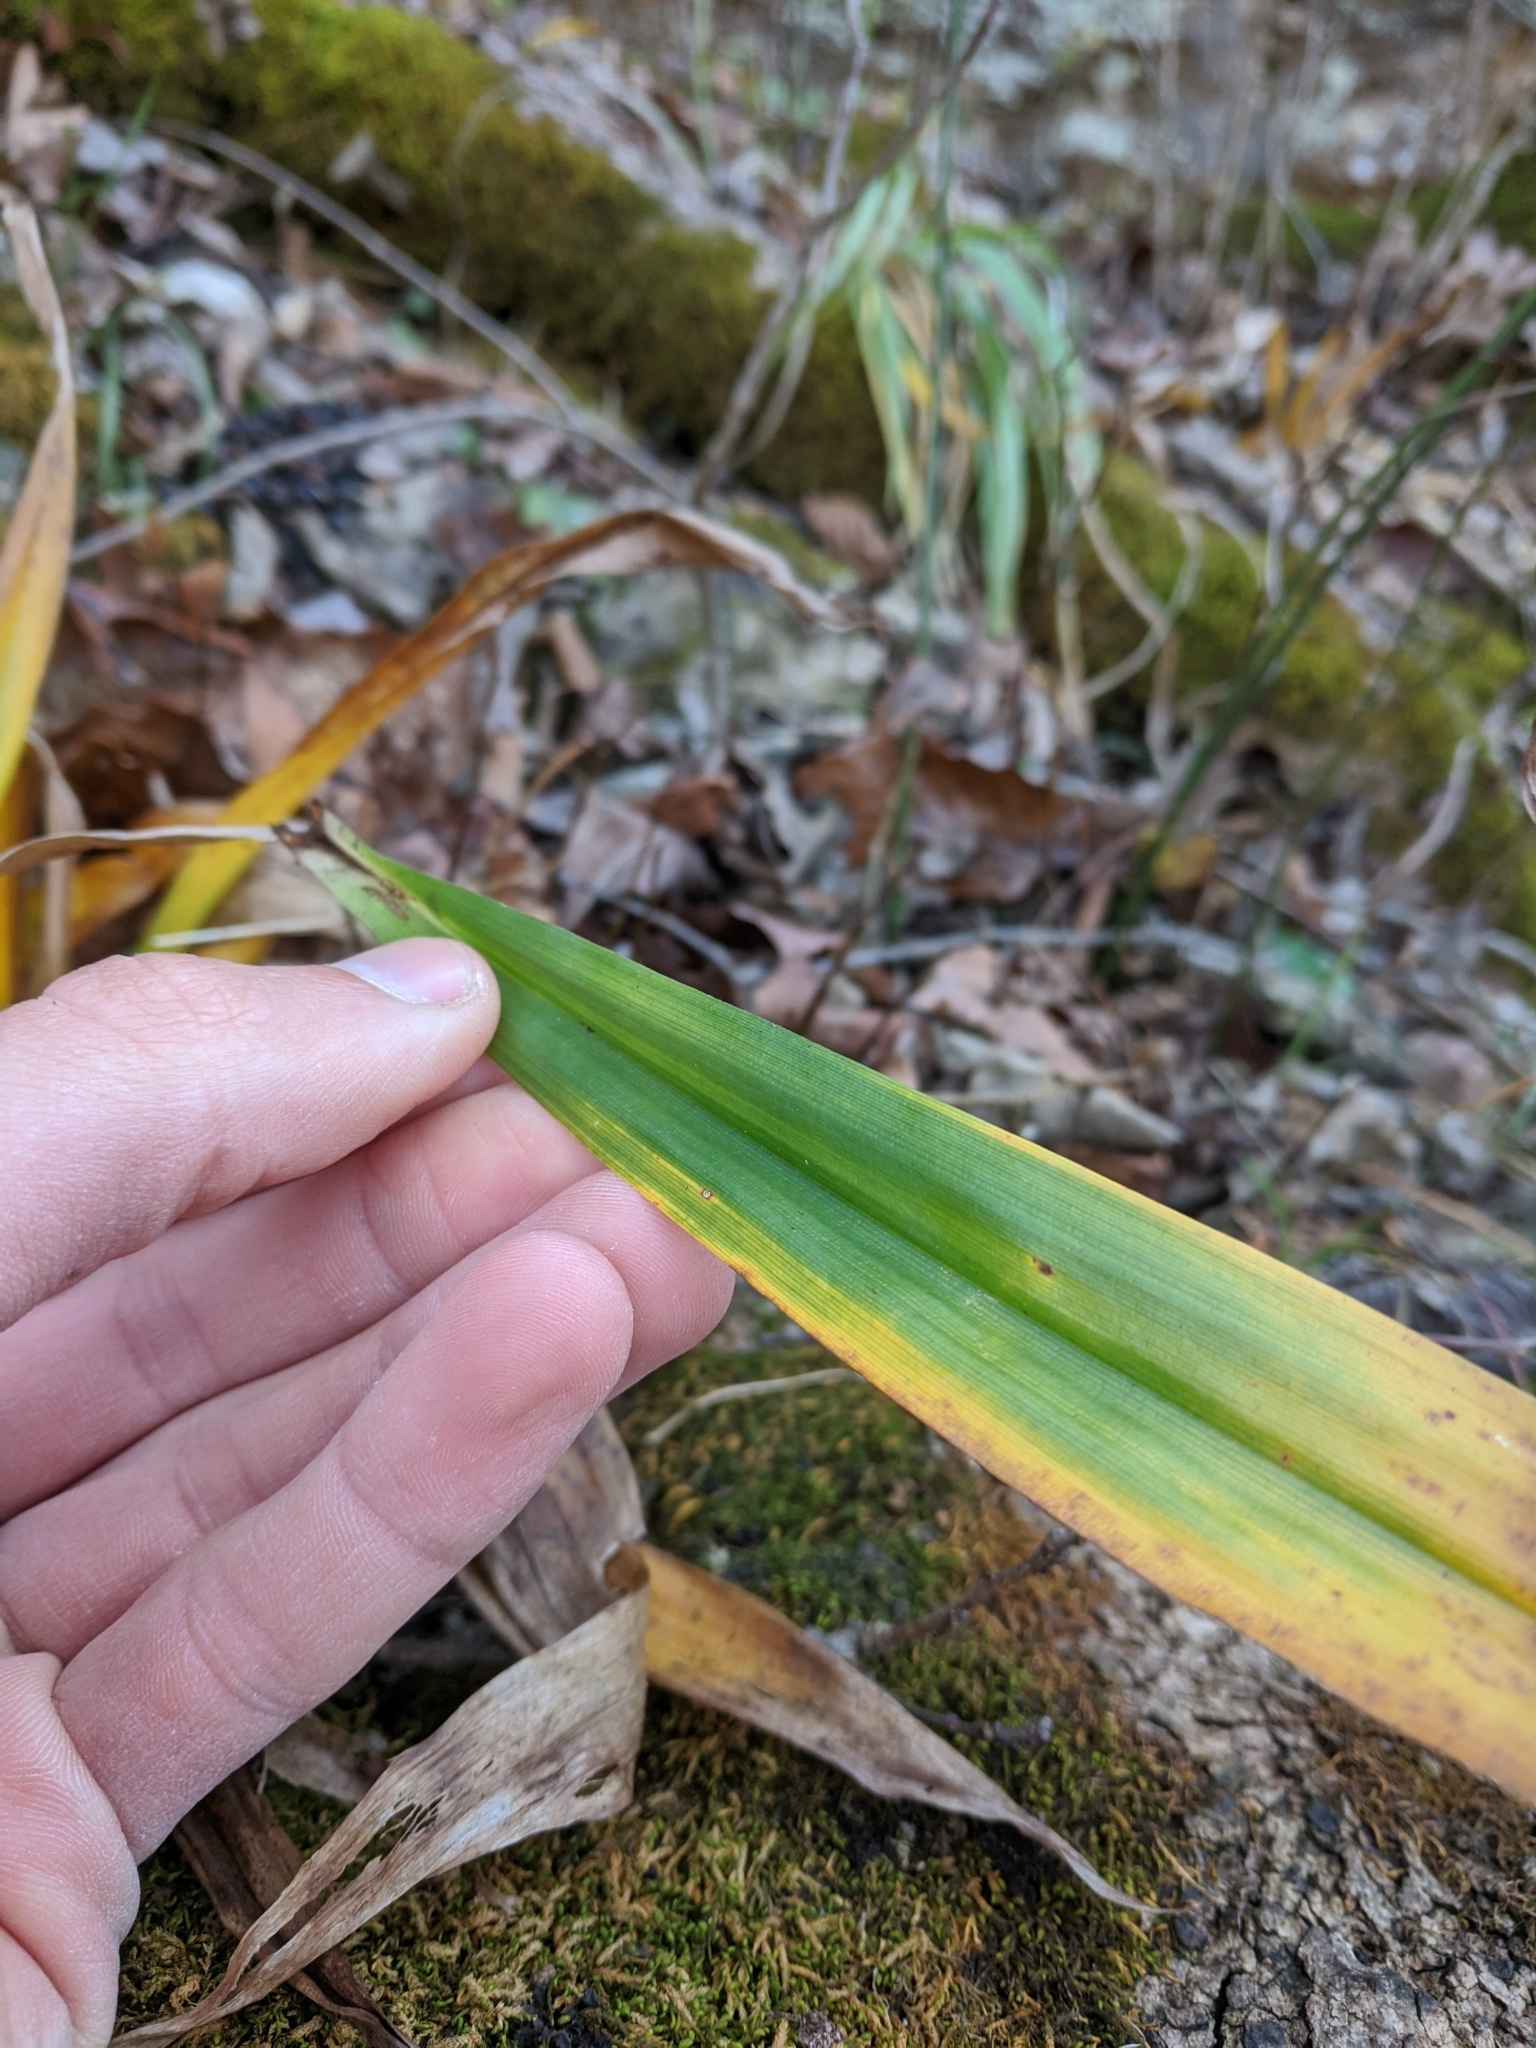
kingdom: Plantae
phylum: Tracheophyta
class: Liliopsida
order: Poales
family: Cyperaceae
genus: Carex
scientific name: Carex albursina
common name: Blunt-scale wood sedge
